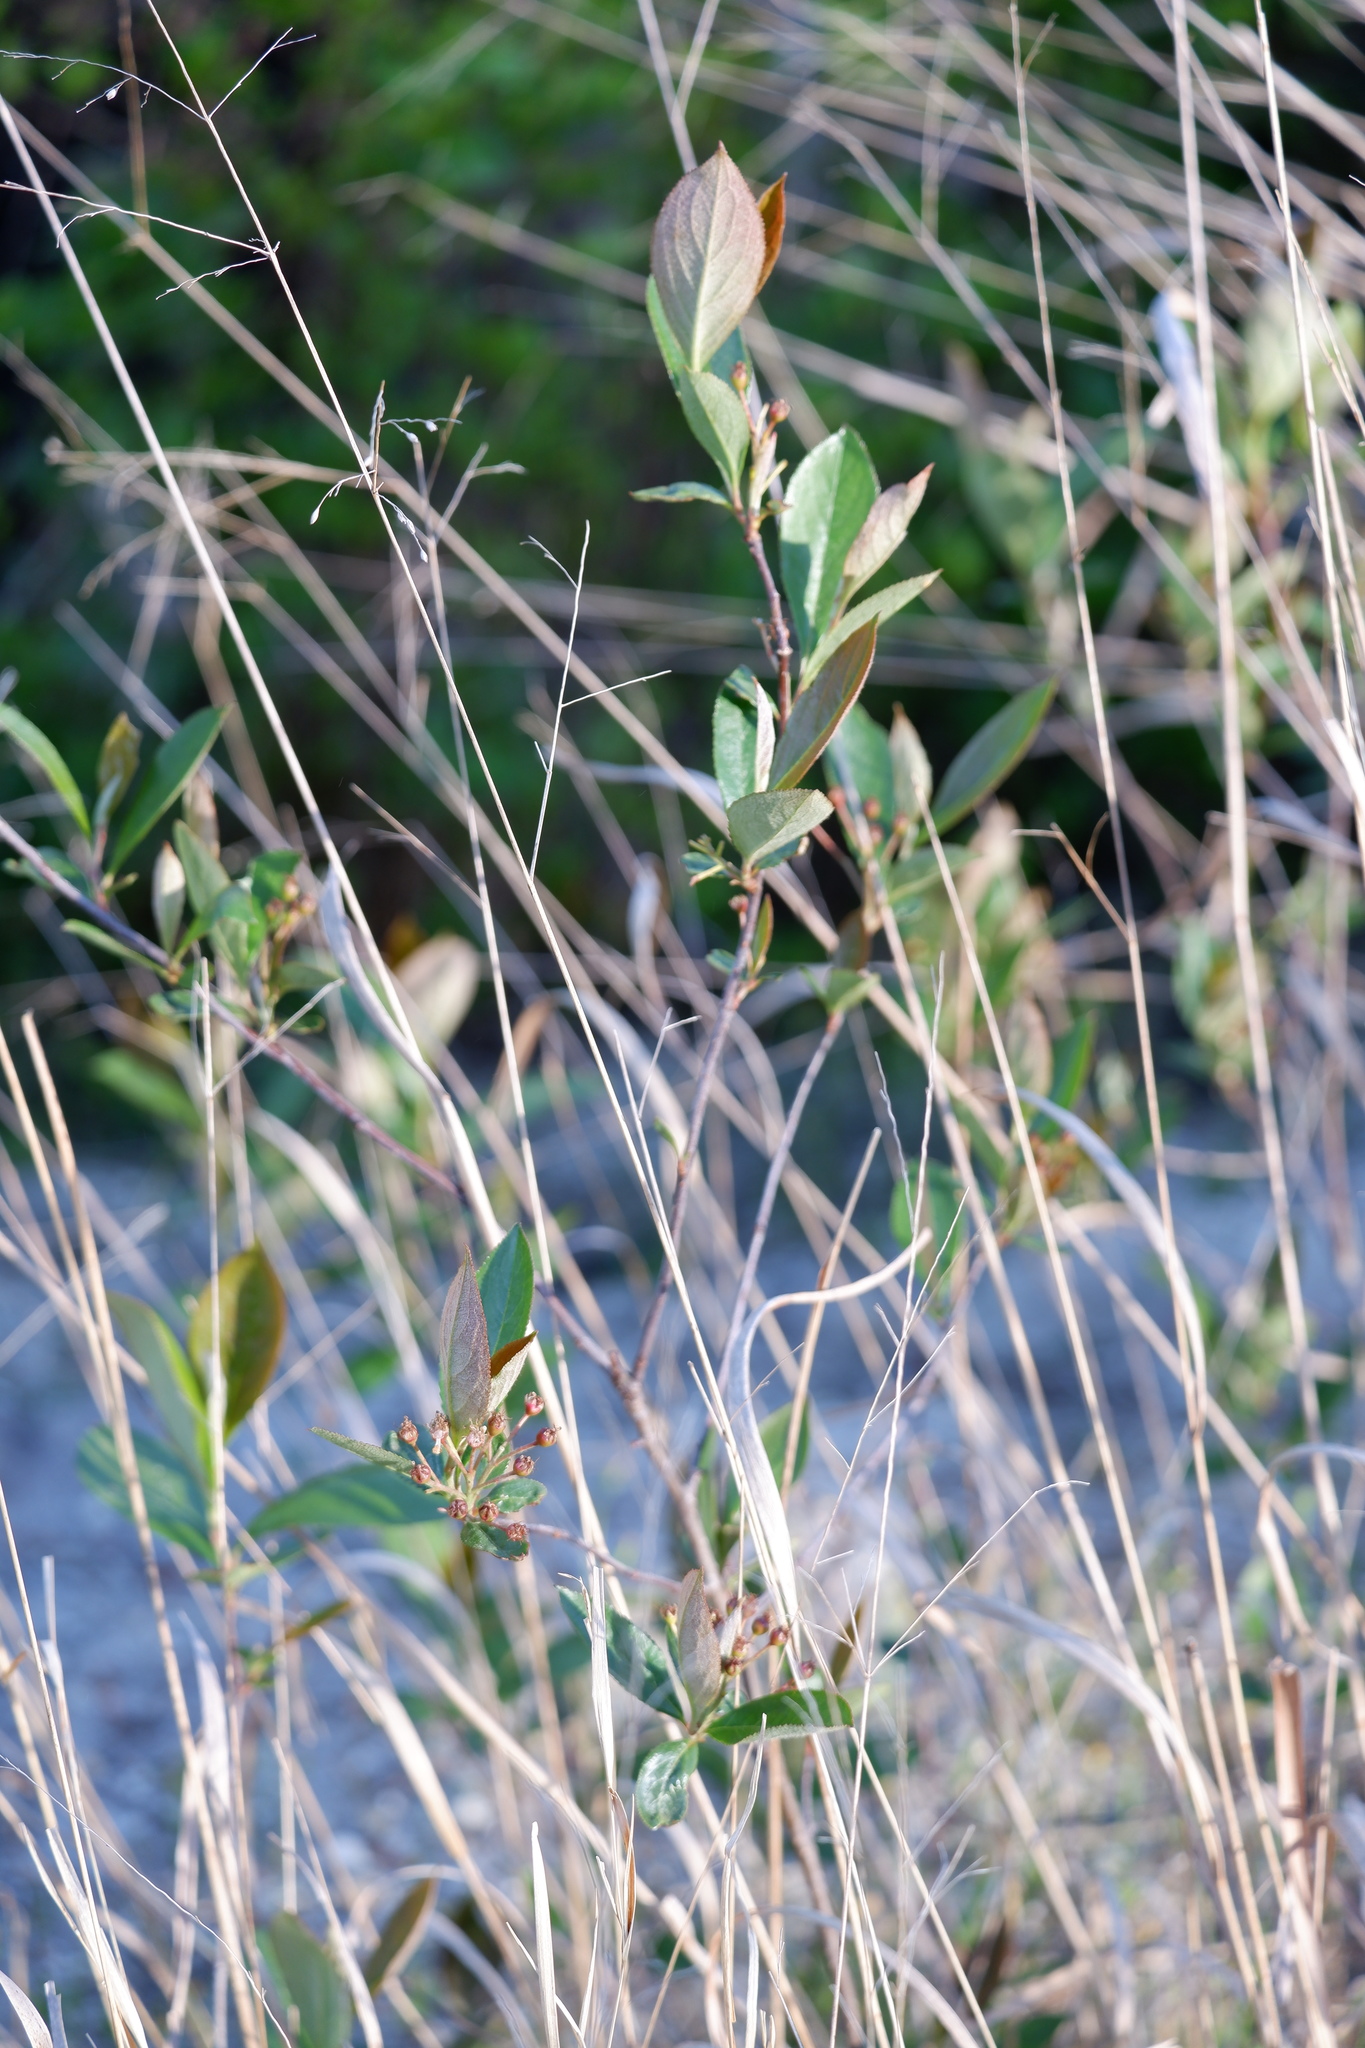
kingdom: Plantae
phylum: Tracheophyta
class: Magnoliopsida
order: Rosales
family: Rosaceae
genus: Aronia
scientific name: Aronia arbutifolia
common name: Red chokeberry
